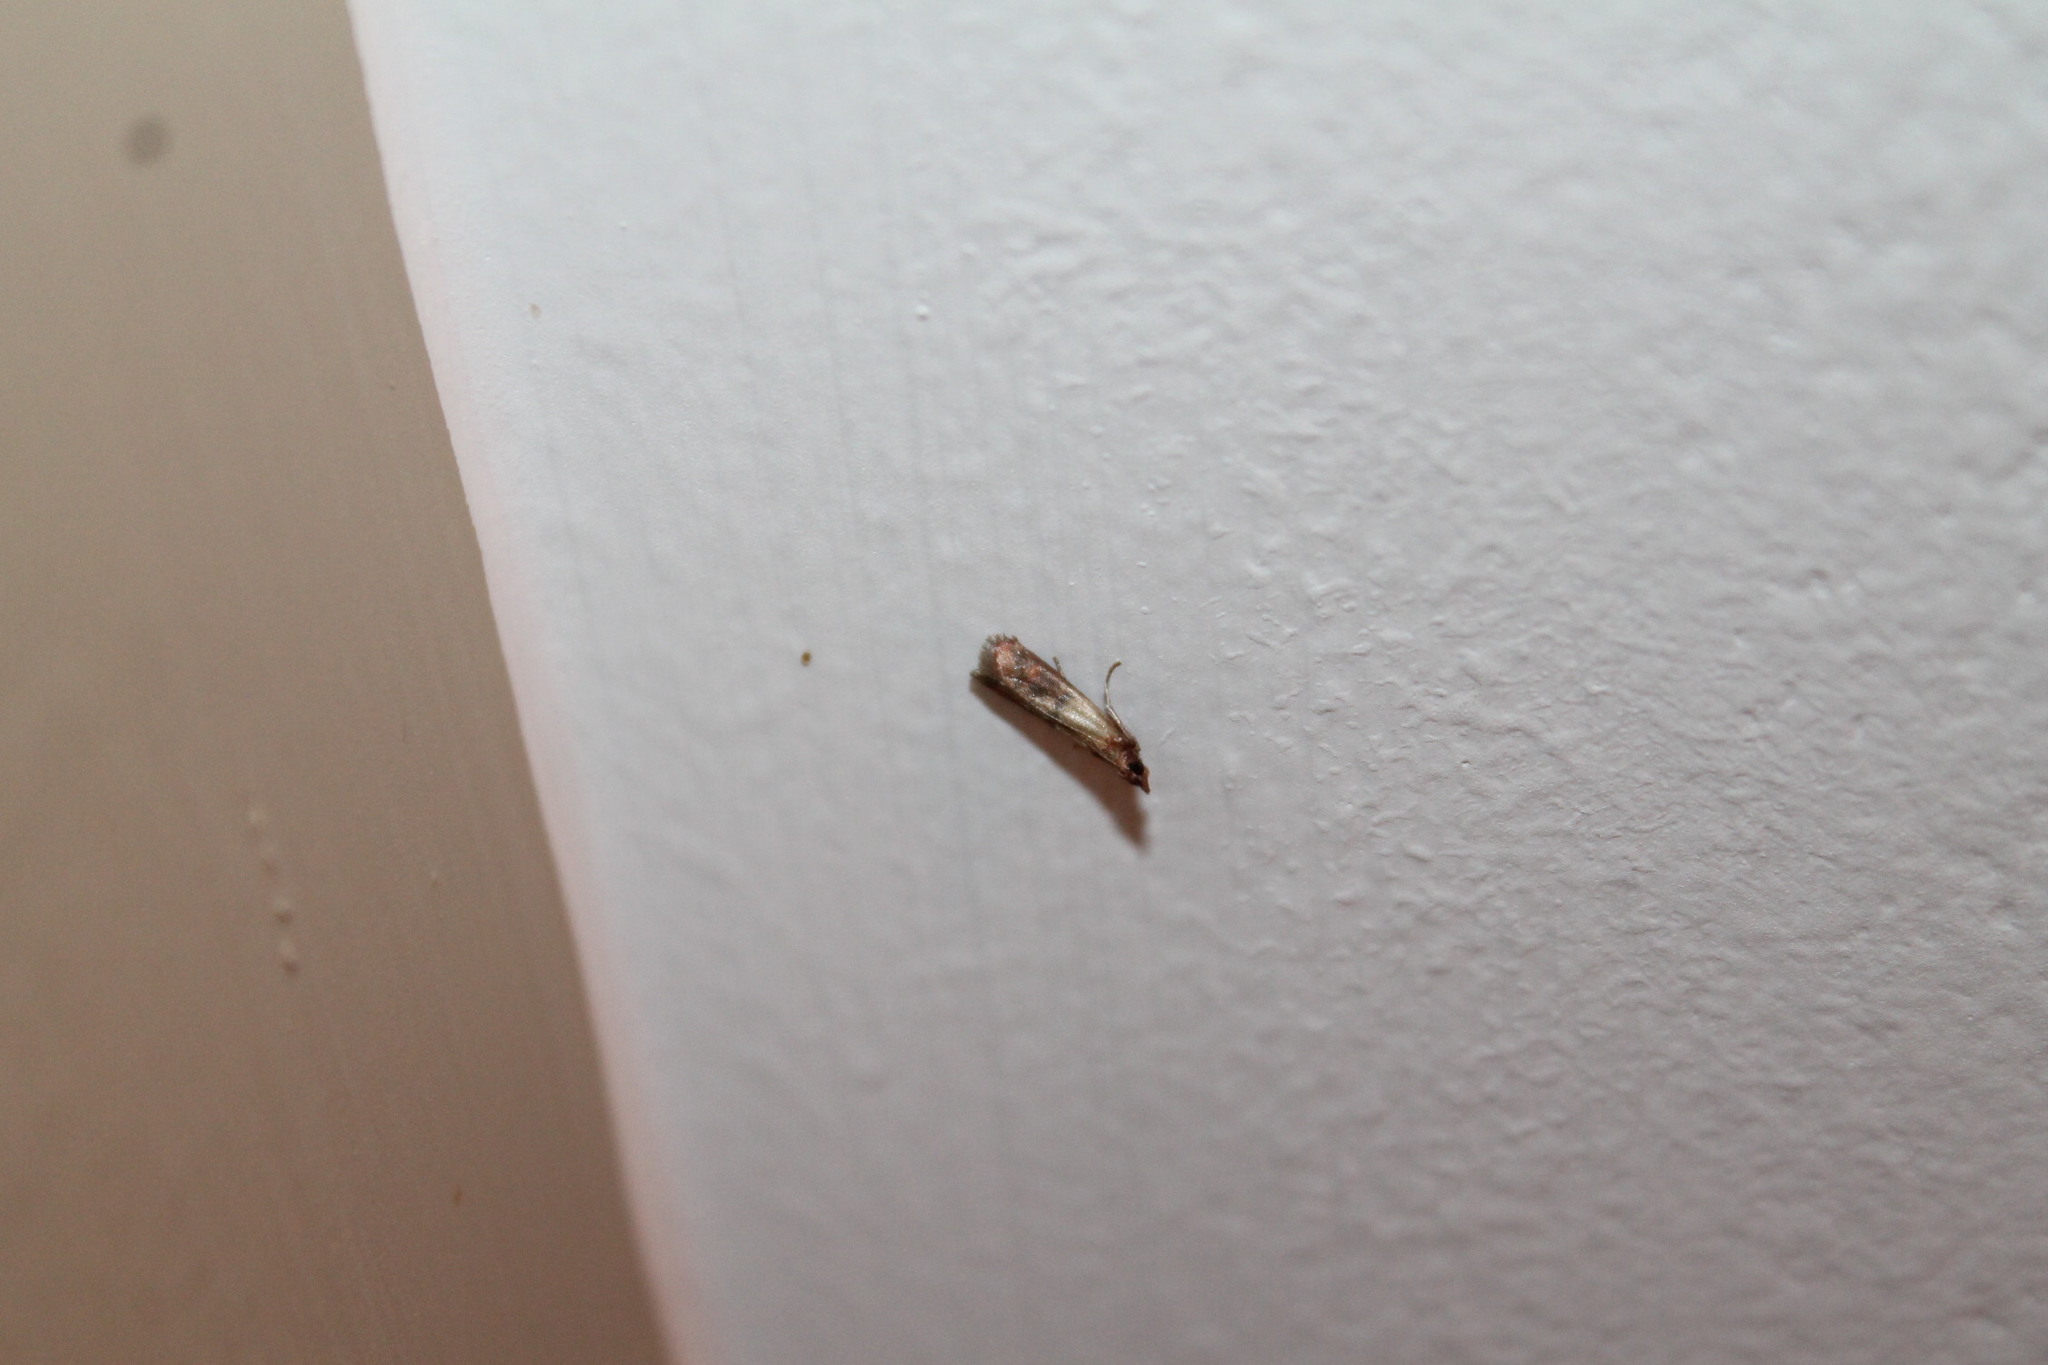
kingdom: Animalia
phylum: Arthropoda
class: Insecta
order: Lepidoptera
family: Pyralidae
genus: Plodia
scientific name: Plodia interpunctella
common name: Indian meal moth
